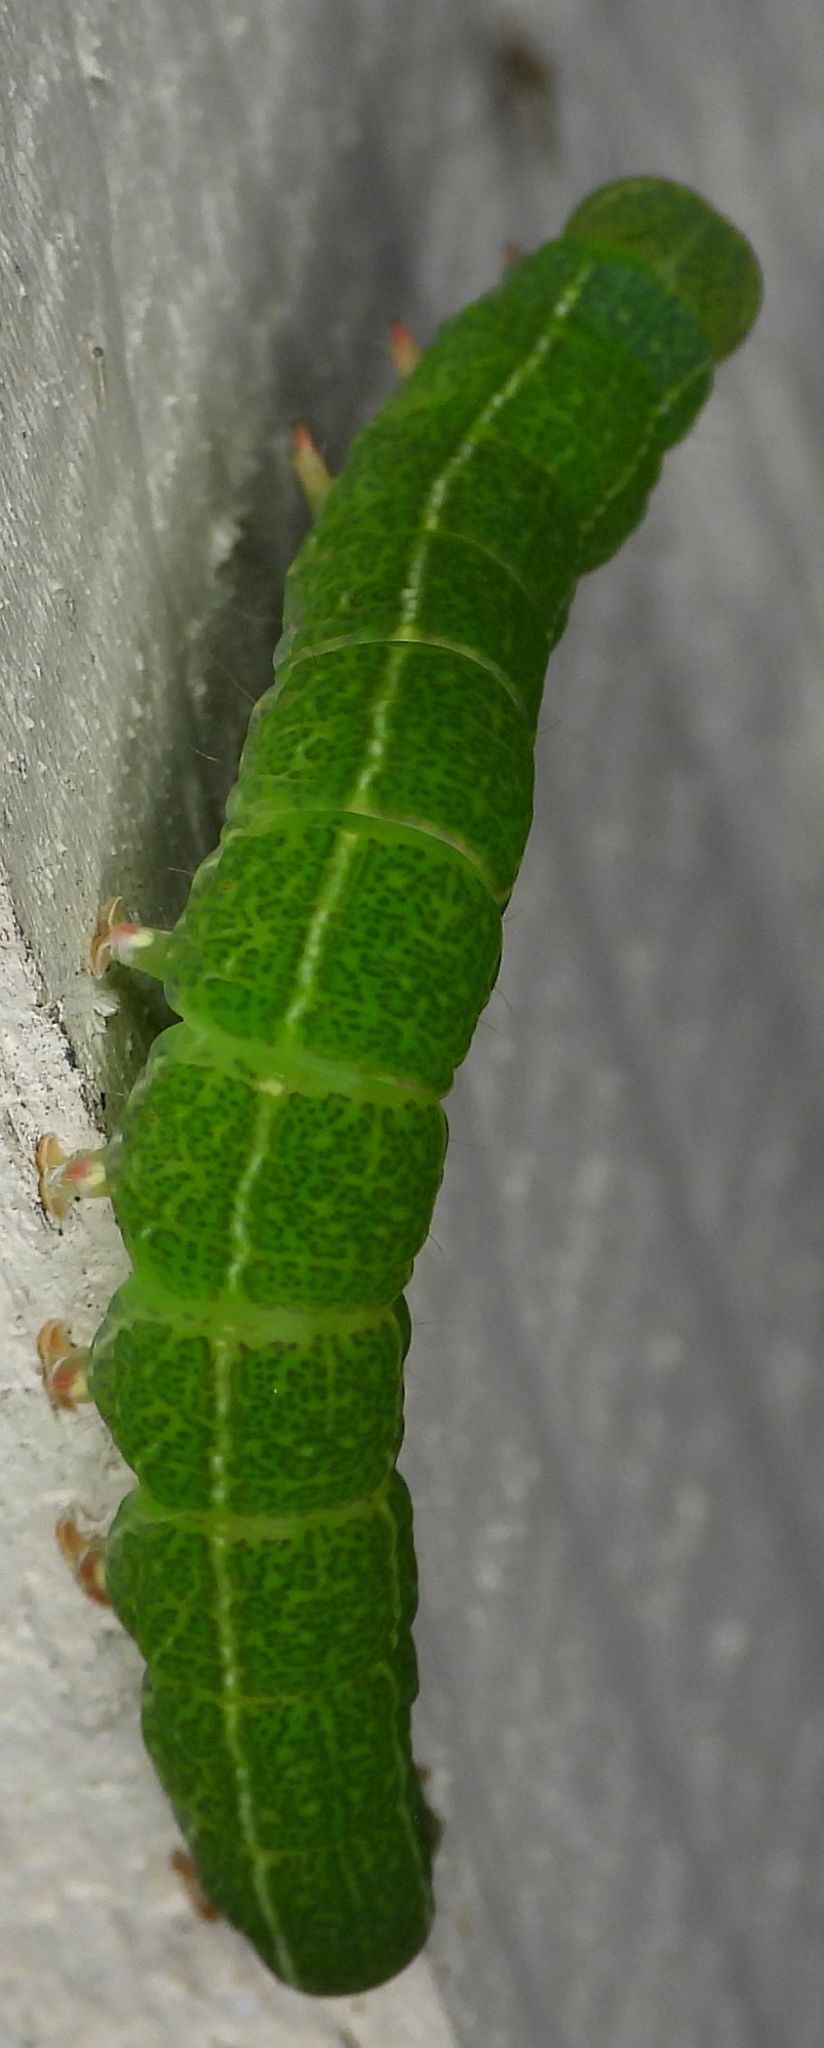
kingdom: Animalia
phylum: Arthropoda
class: Insecta
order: Lepidoptera
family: Erebidae
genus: Panopoda
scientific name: Panopoda rufimargo
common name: Red-lined panopoda moth
